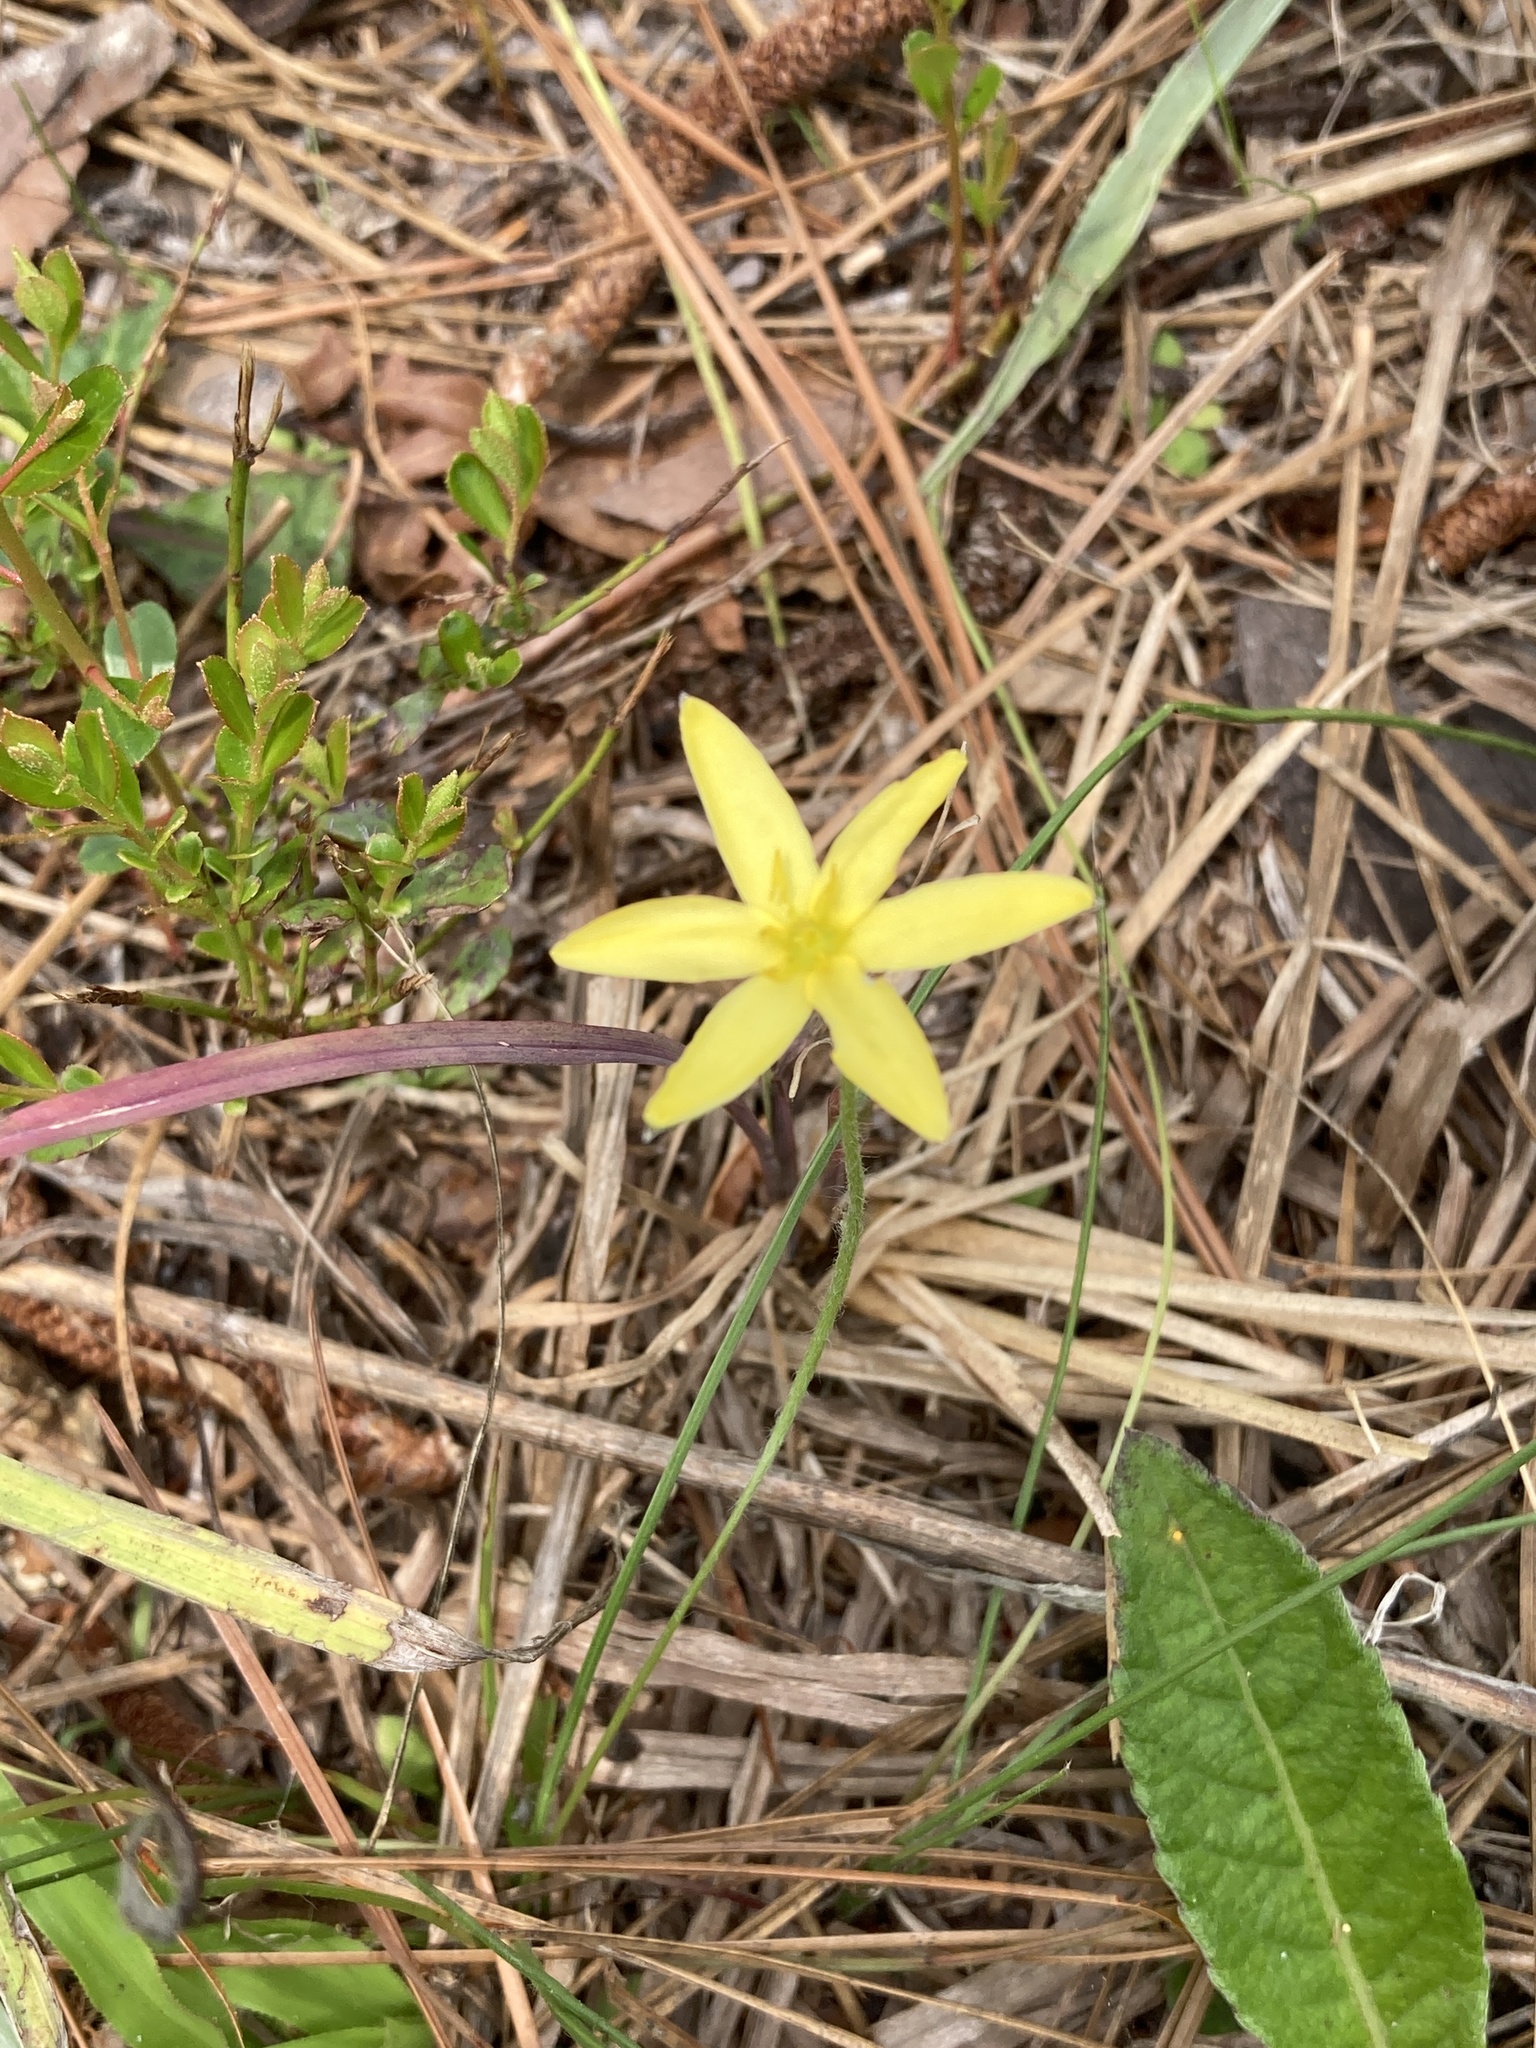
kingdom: Plantae
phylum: Tracheophyta
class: Liliopsida
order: Asparagales
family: Hypoxidaceae
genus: Hypoxis
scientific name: Hypoxis juncea
